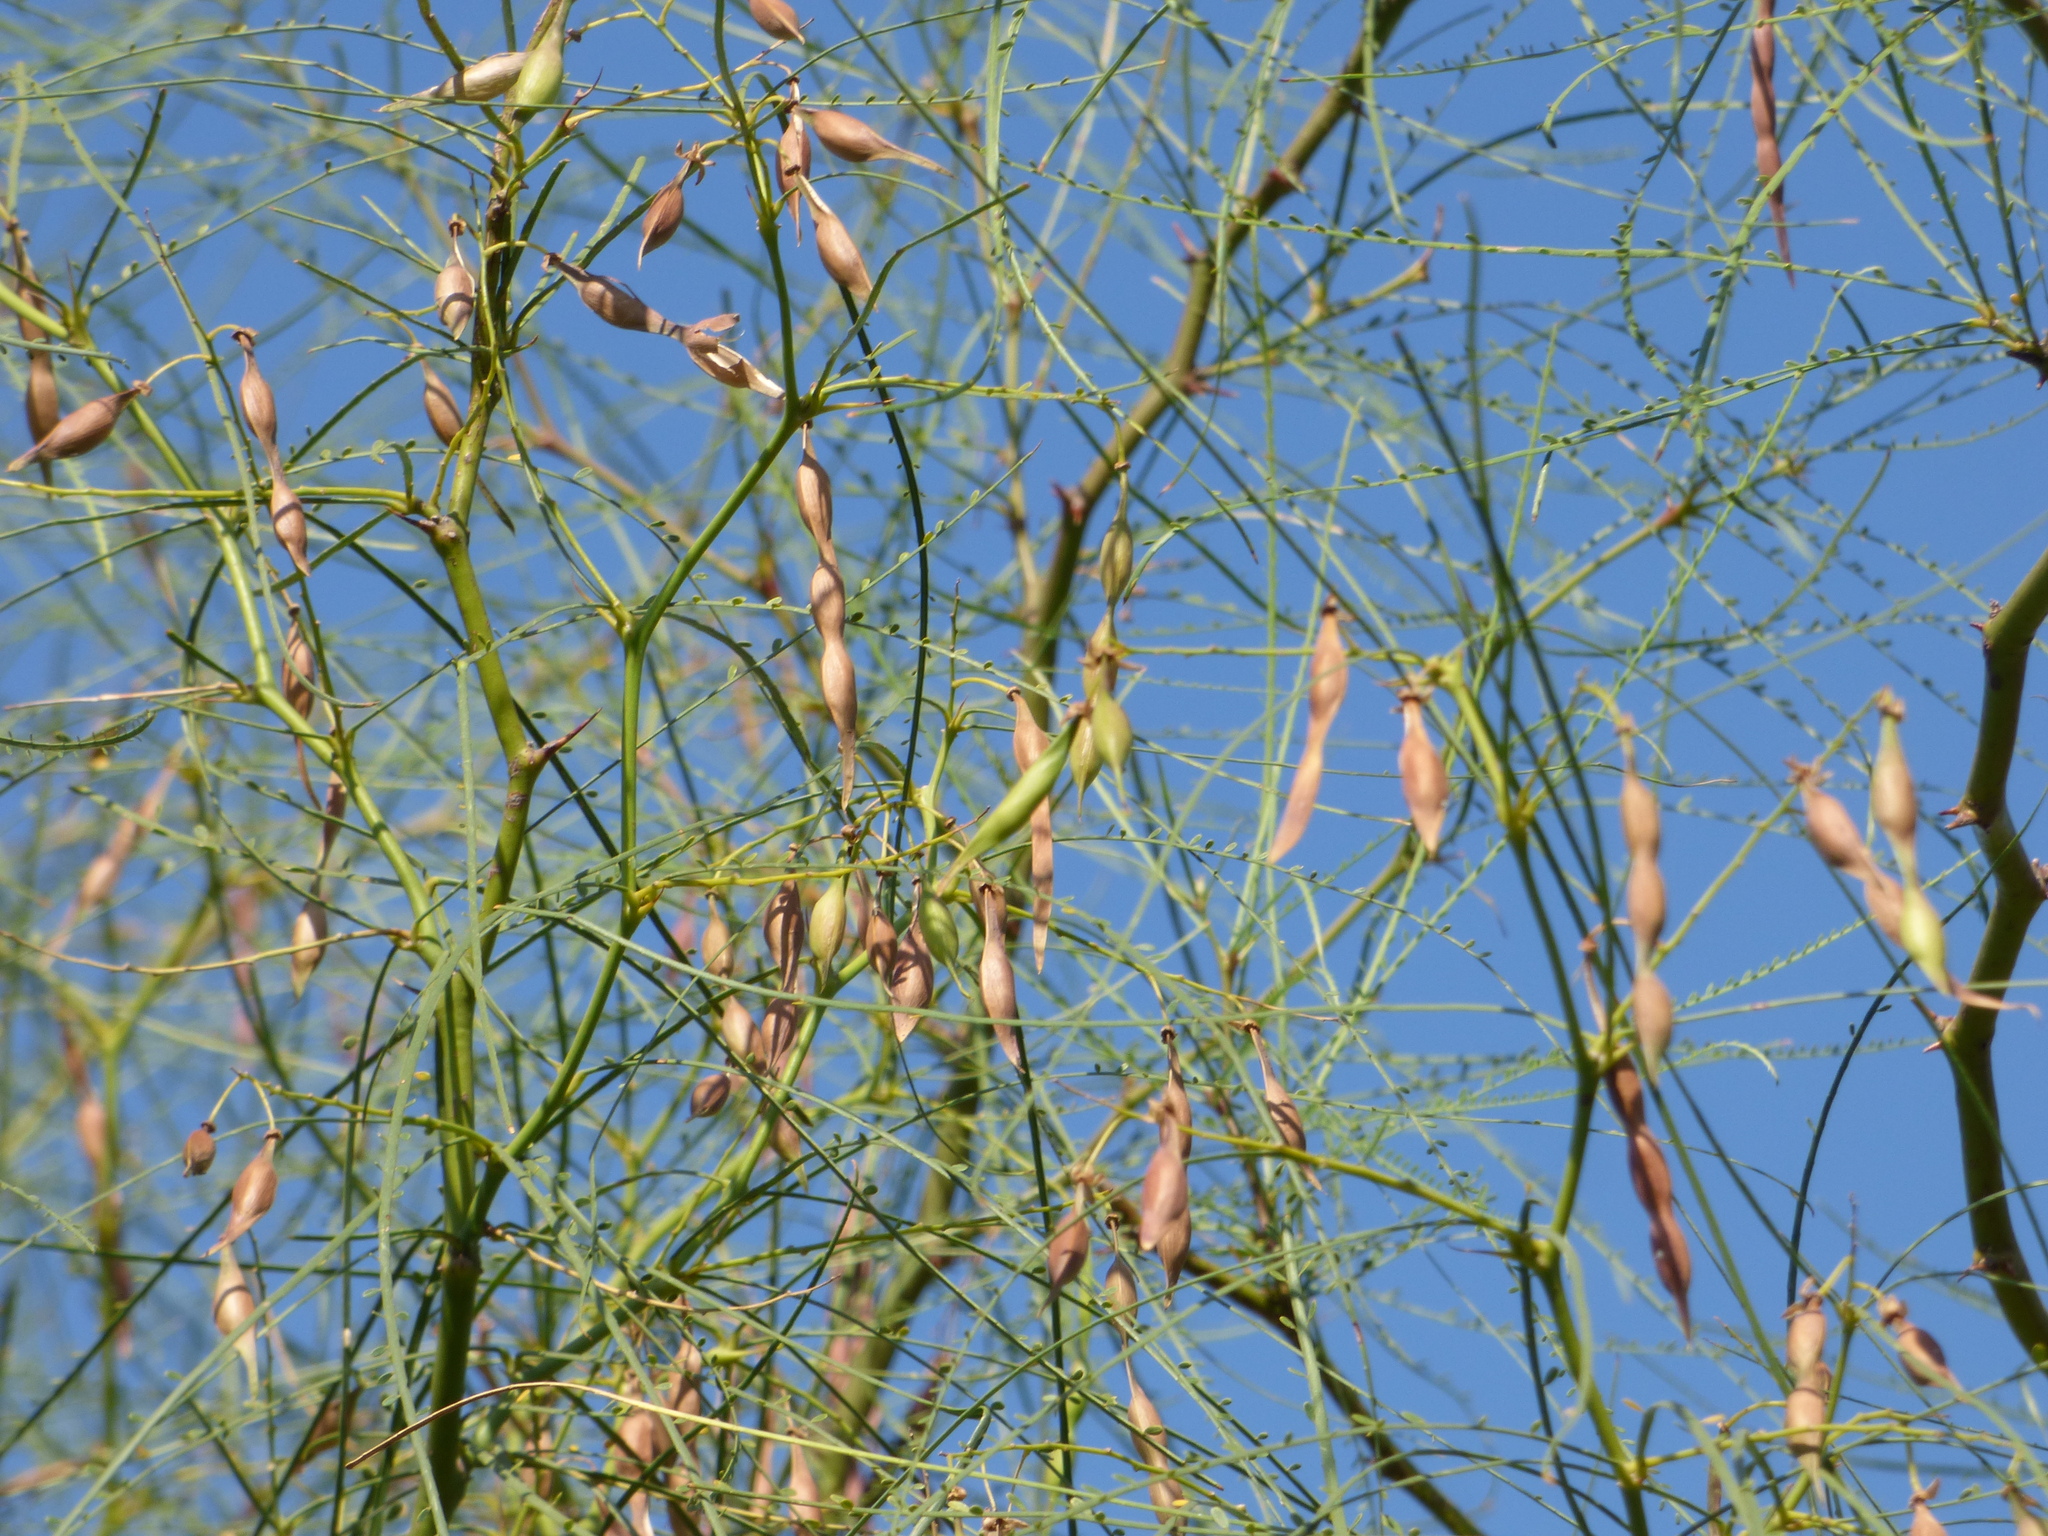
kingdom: Plantae
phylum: Tracheophyta
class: Magnoliopsida
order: Fabales
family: Fabaceae
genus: Parkinsonia
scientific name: Parkinsonia aculeata
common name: Jerusalem thorn
